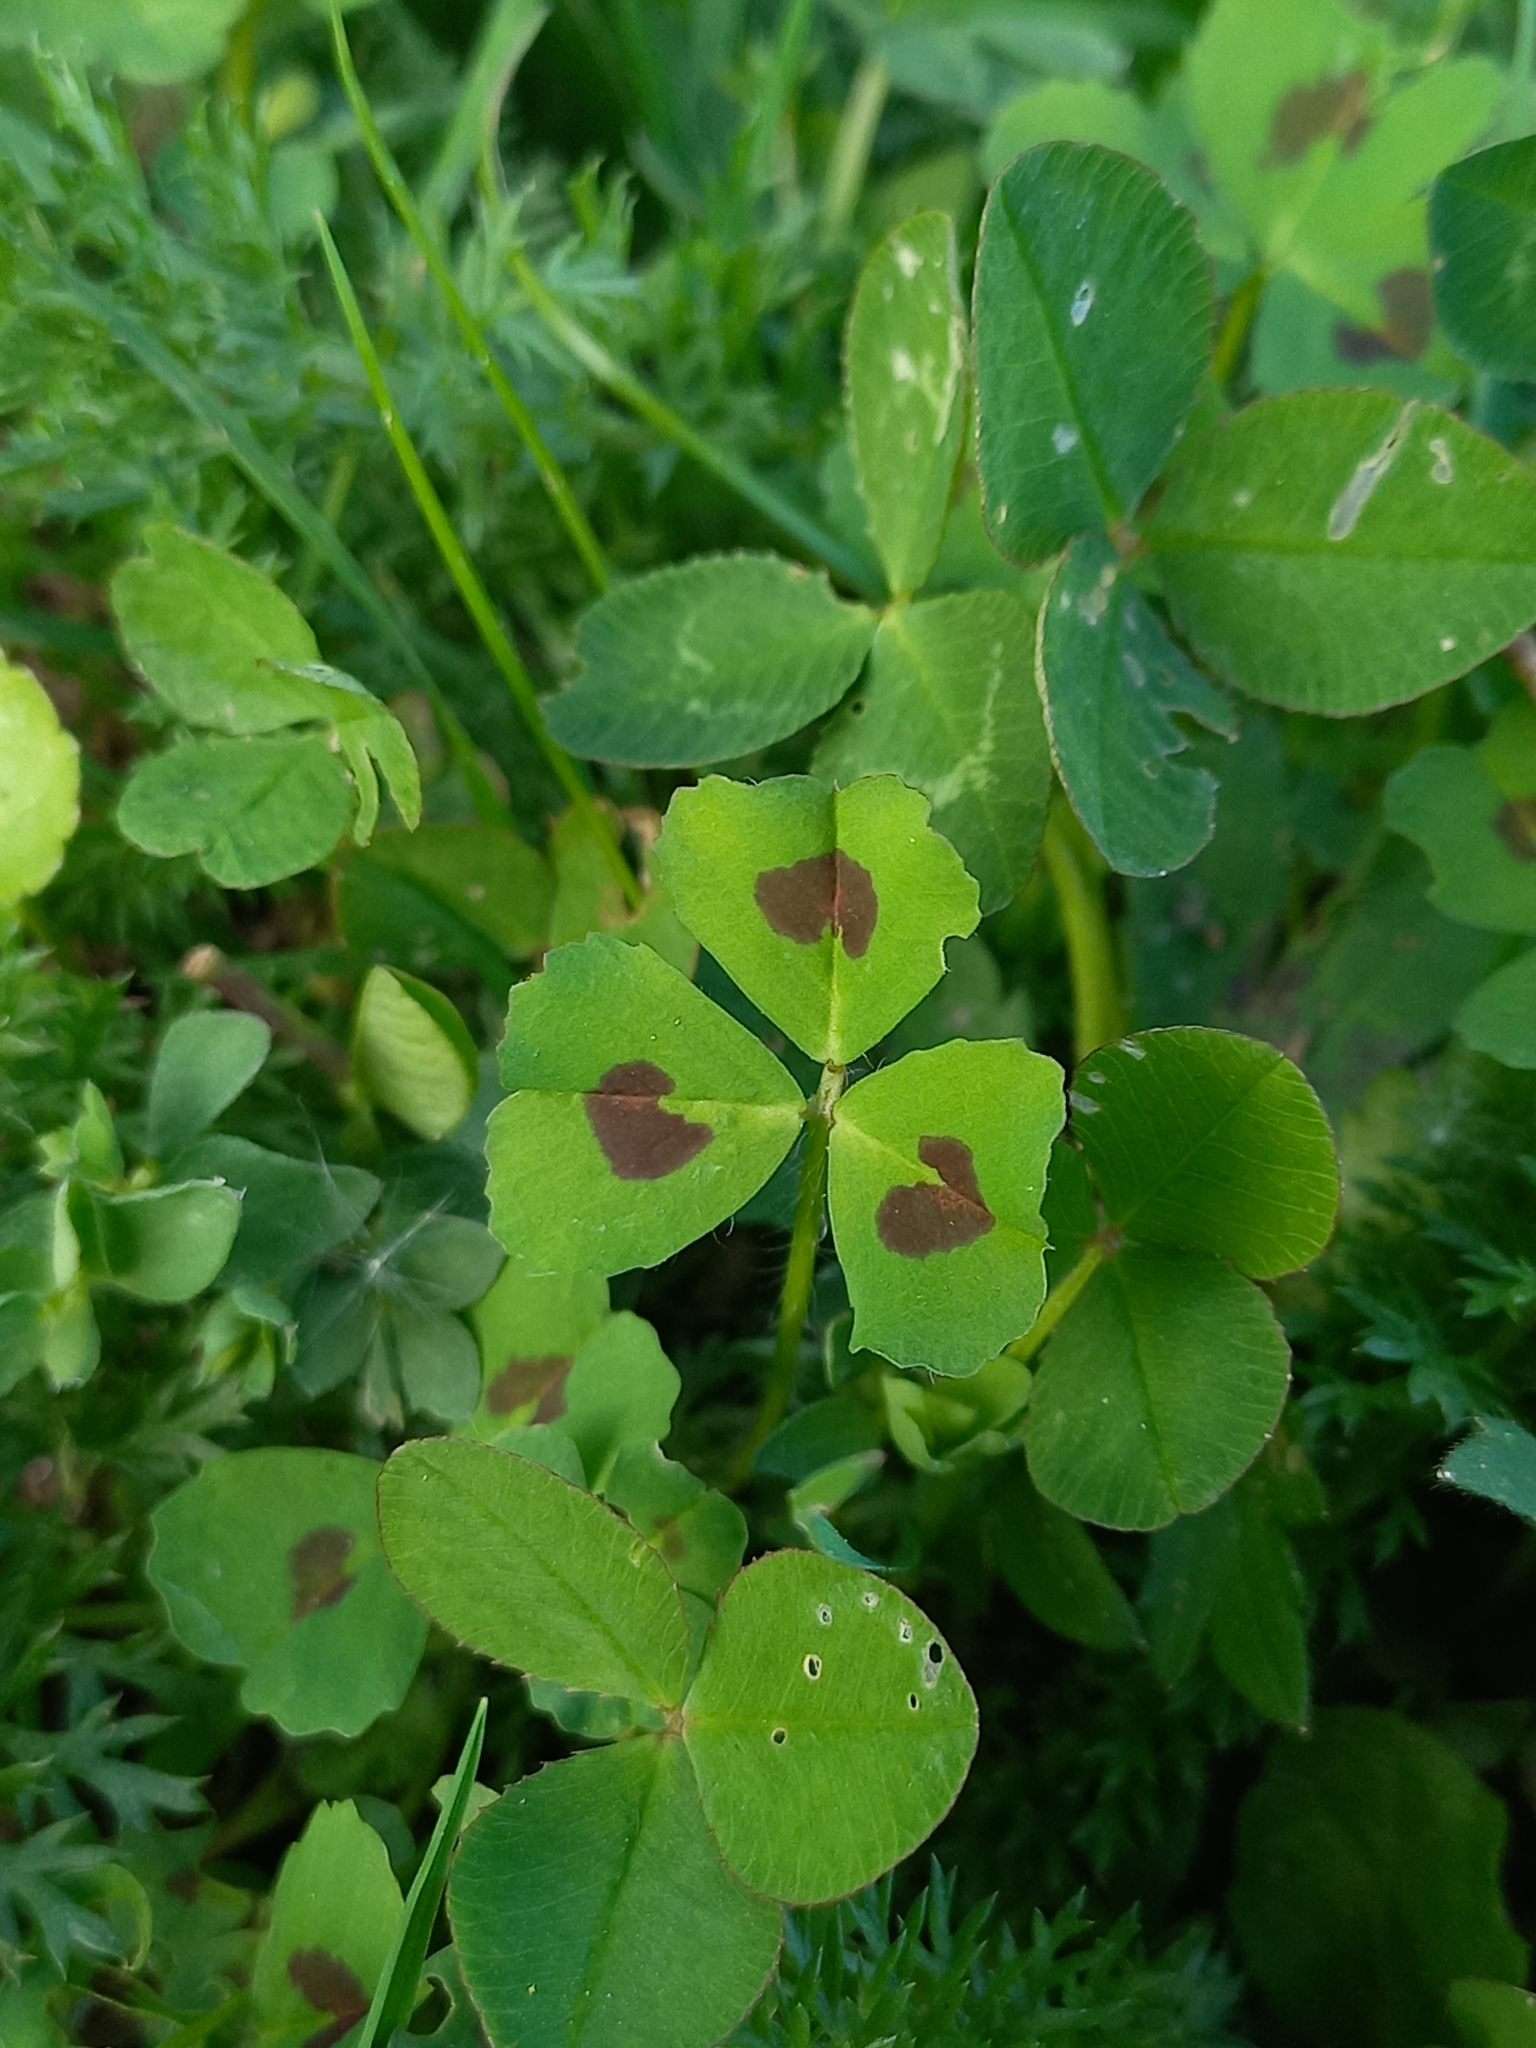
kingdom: Plantae
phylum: Tracheophyta
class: Magnoliopsida
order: Fabales
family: Fabaceae
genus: Medicago
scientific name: Medicago arabica
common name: Spotted medick
